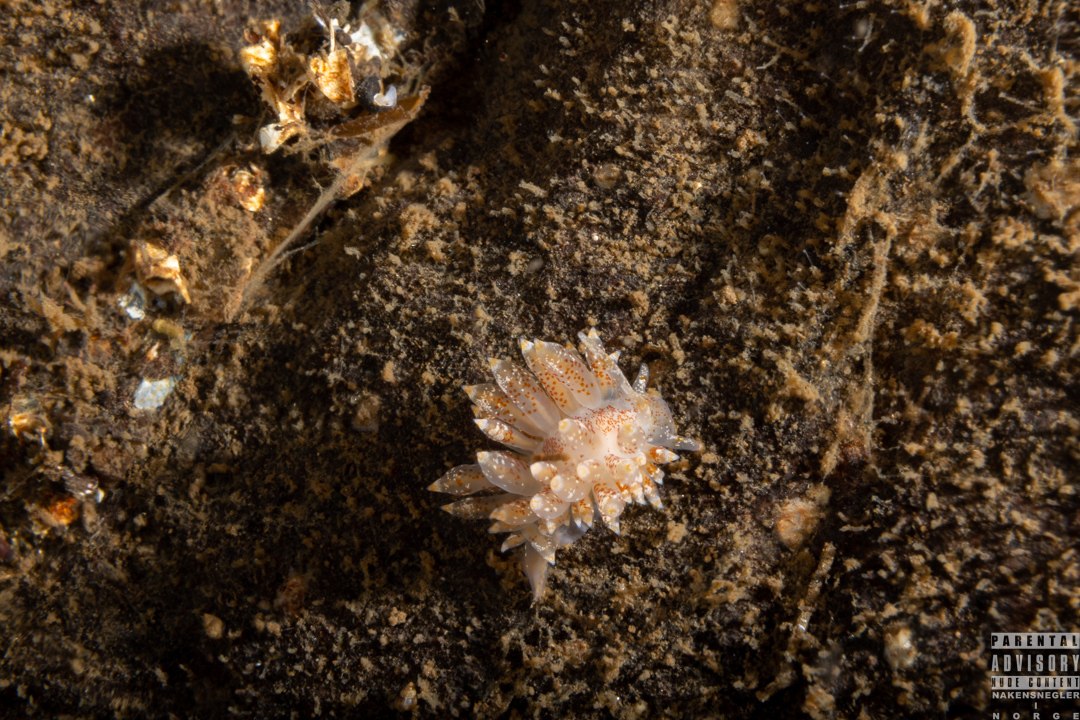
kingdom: Animalia
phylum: Mollusca
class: Gastropoda
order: Nudibranchia
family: Eubranchidae
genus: Amphorina
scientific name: Amphorina pallida
